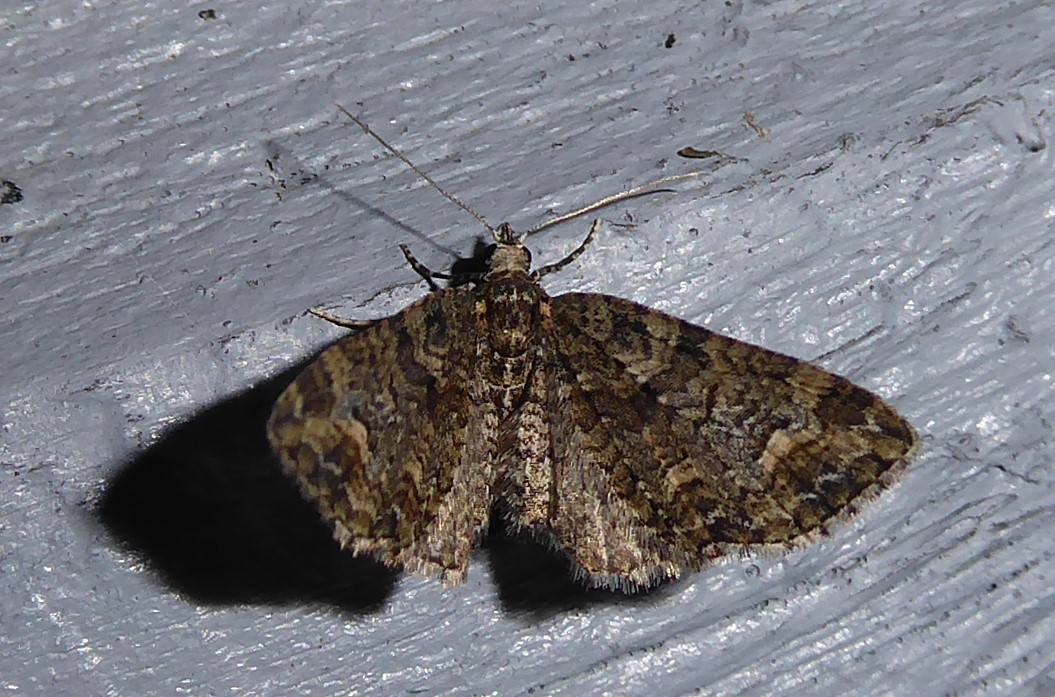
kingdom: Animalia
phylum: Arthropoda
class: Insecta
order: Lepidoptera
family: Geometridae
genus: Idaea
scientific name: Idaea mutanda
